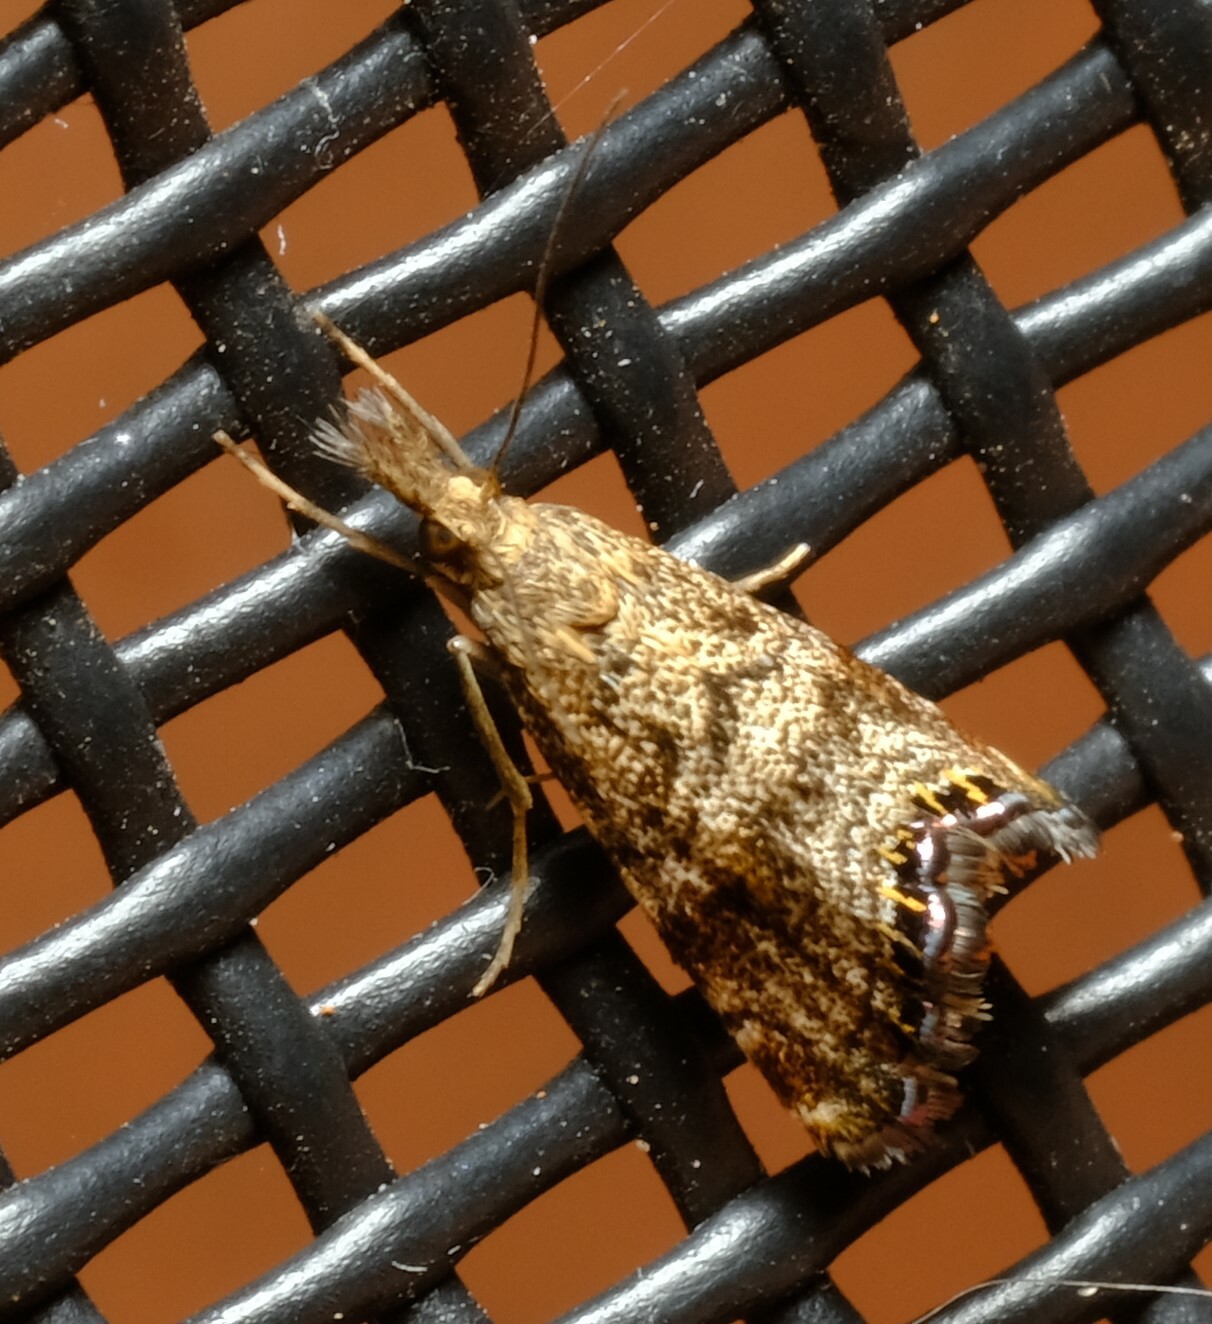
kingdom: Animalia
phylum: Arthropoda
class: Insecta
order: Lepidoptera
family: Crambidae
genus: Glaucocharis
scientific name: Glaucocharis dilatella
